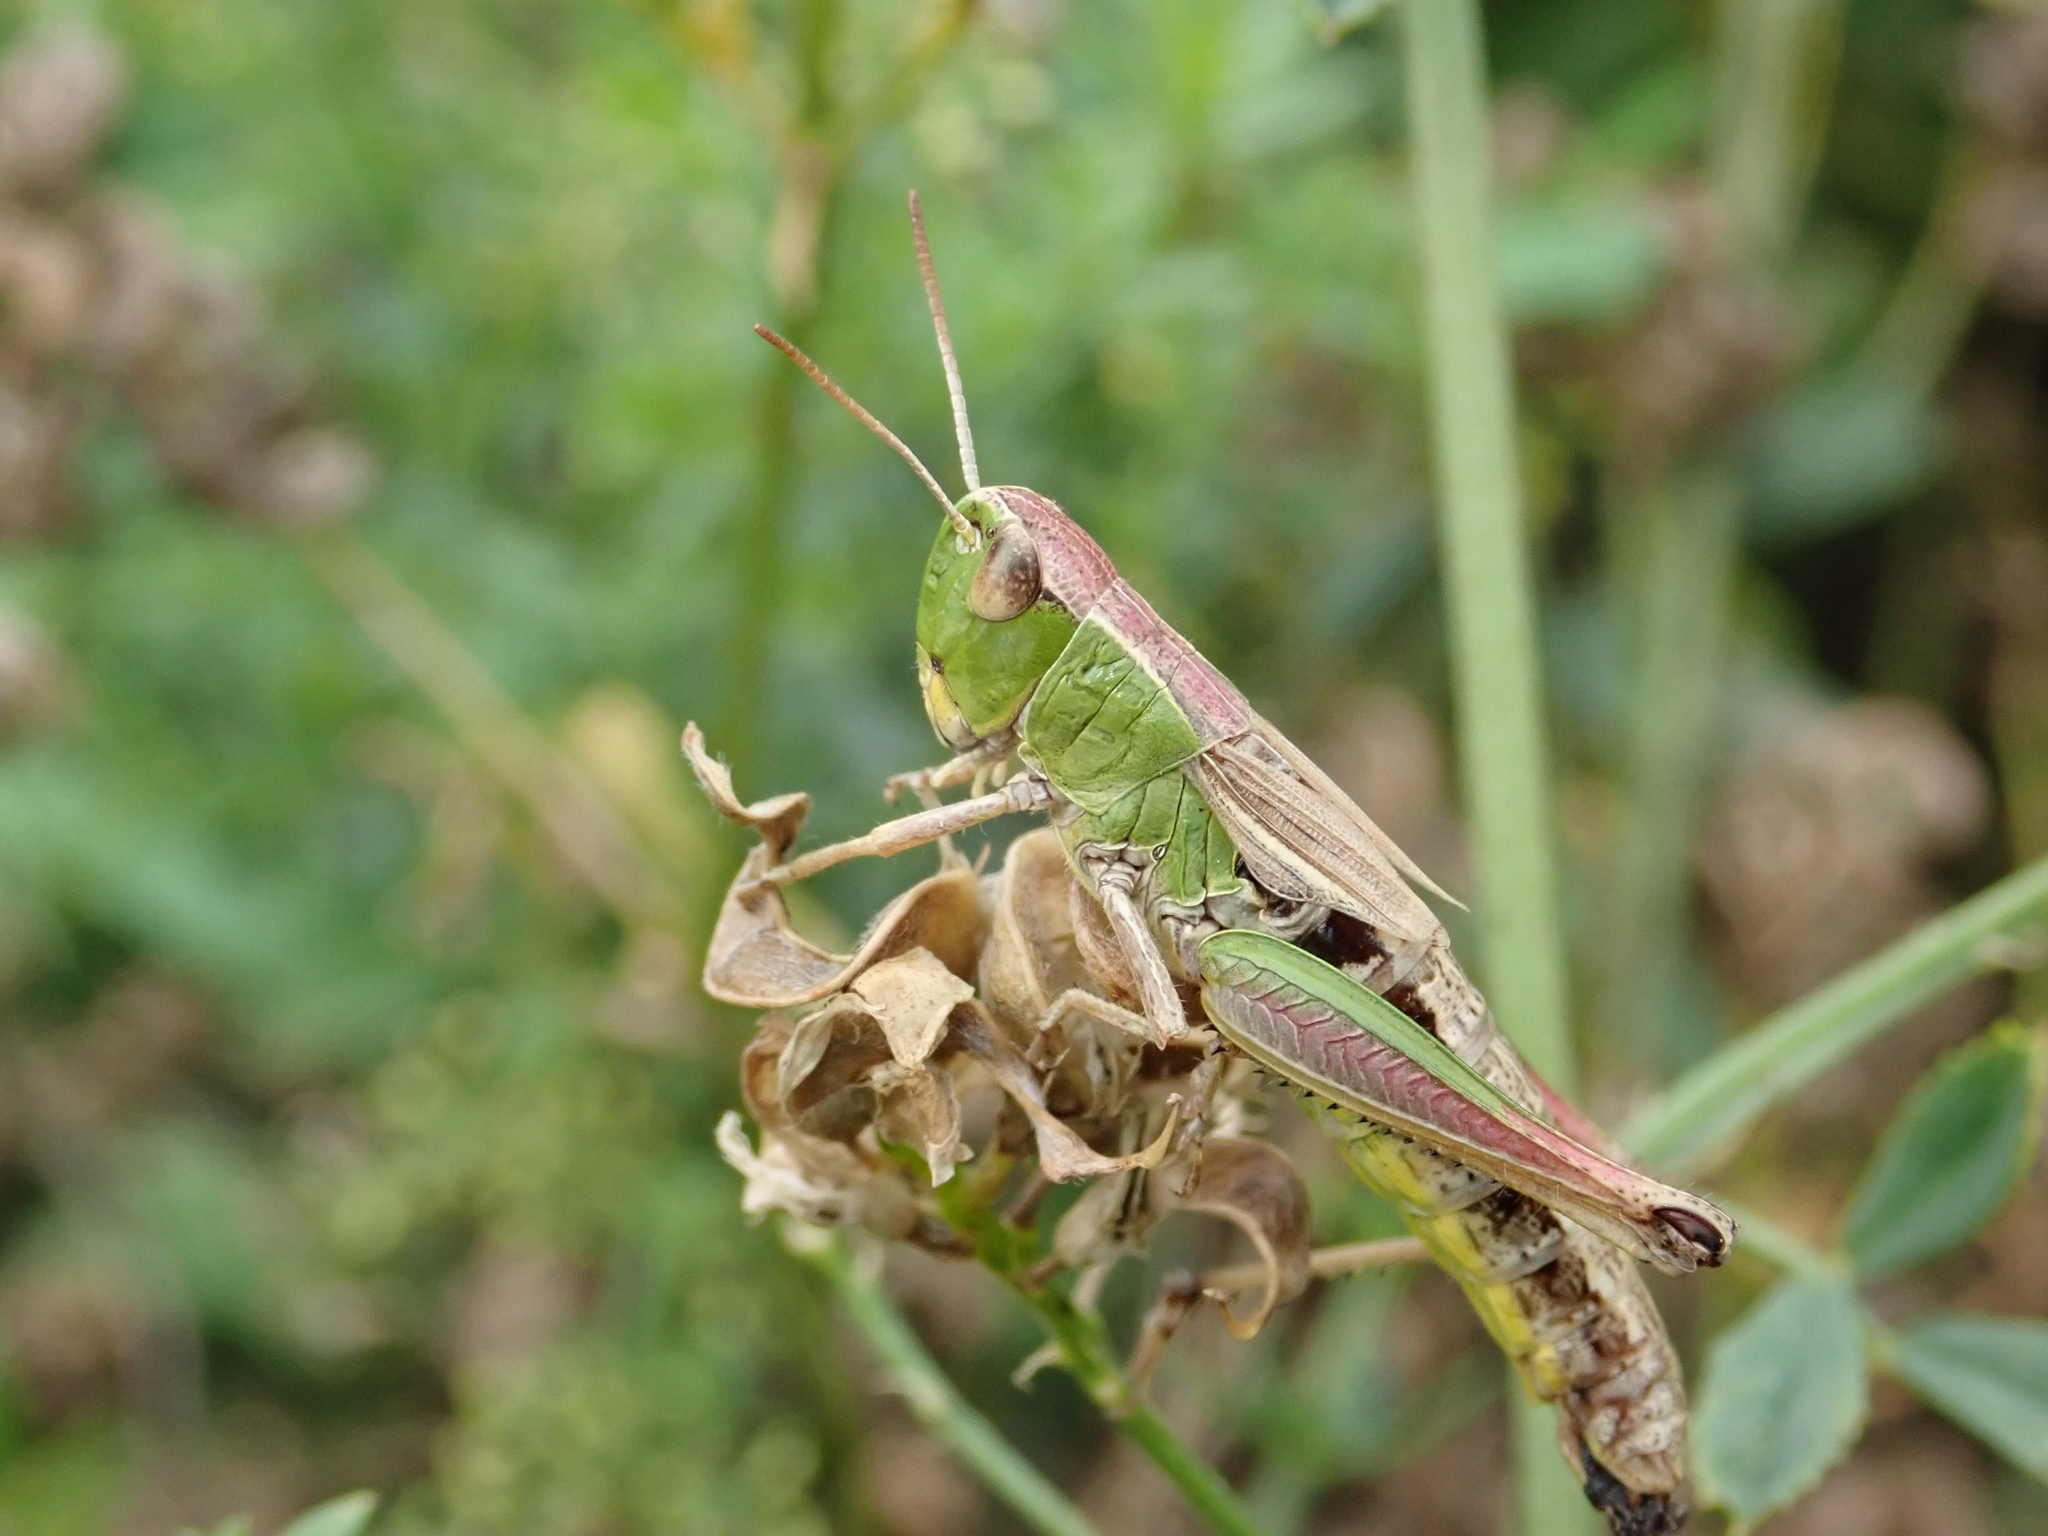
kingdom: Animalia
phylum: Arthropoda
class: Insecta
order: Orthoptera
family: Acrididae
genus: Pseudochorthippus
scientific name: Pseudochorthippus parallelus
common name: Meadow grasshopper
